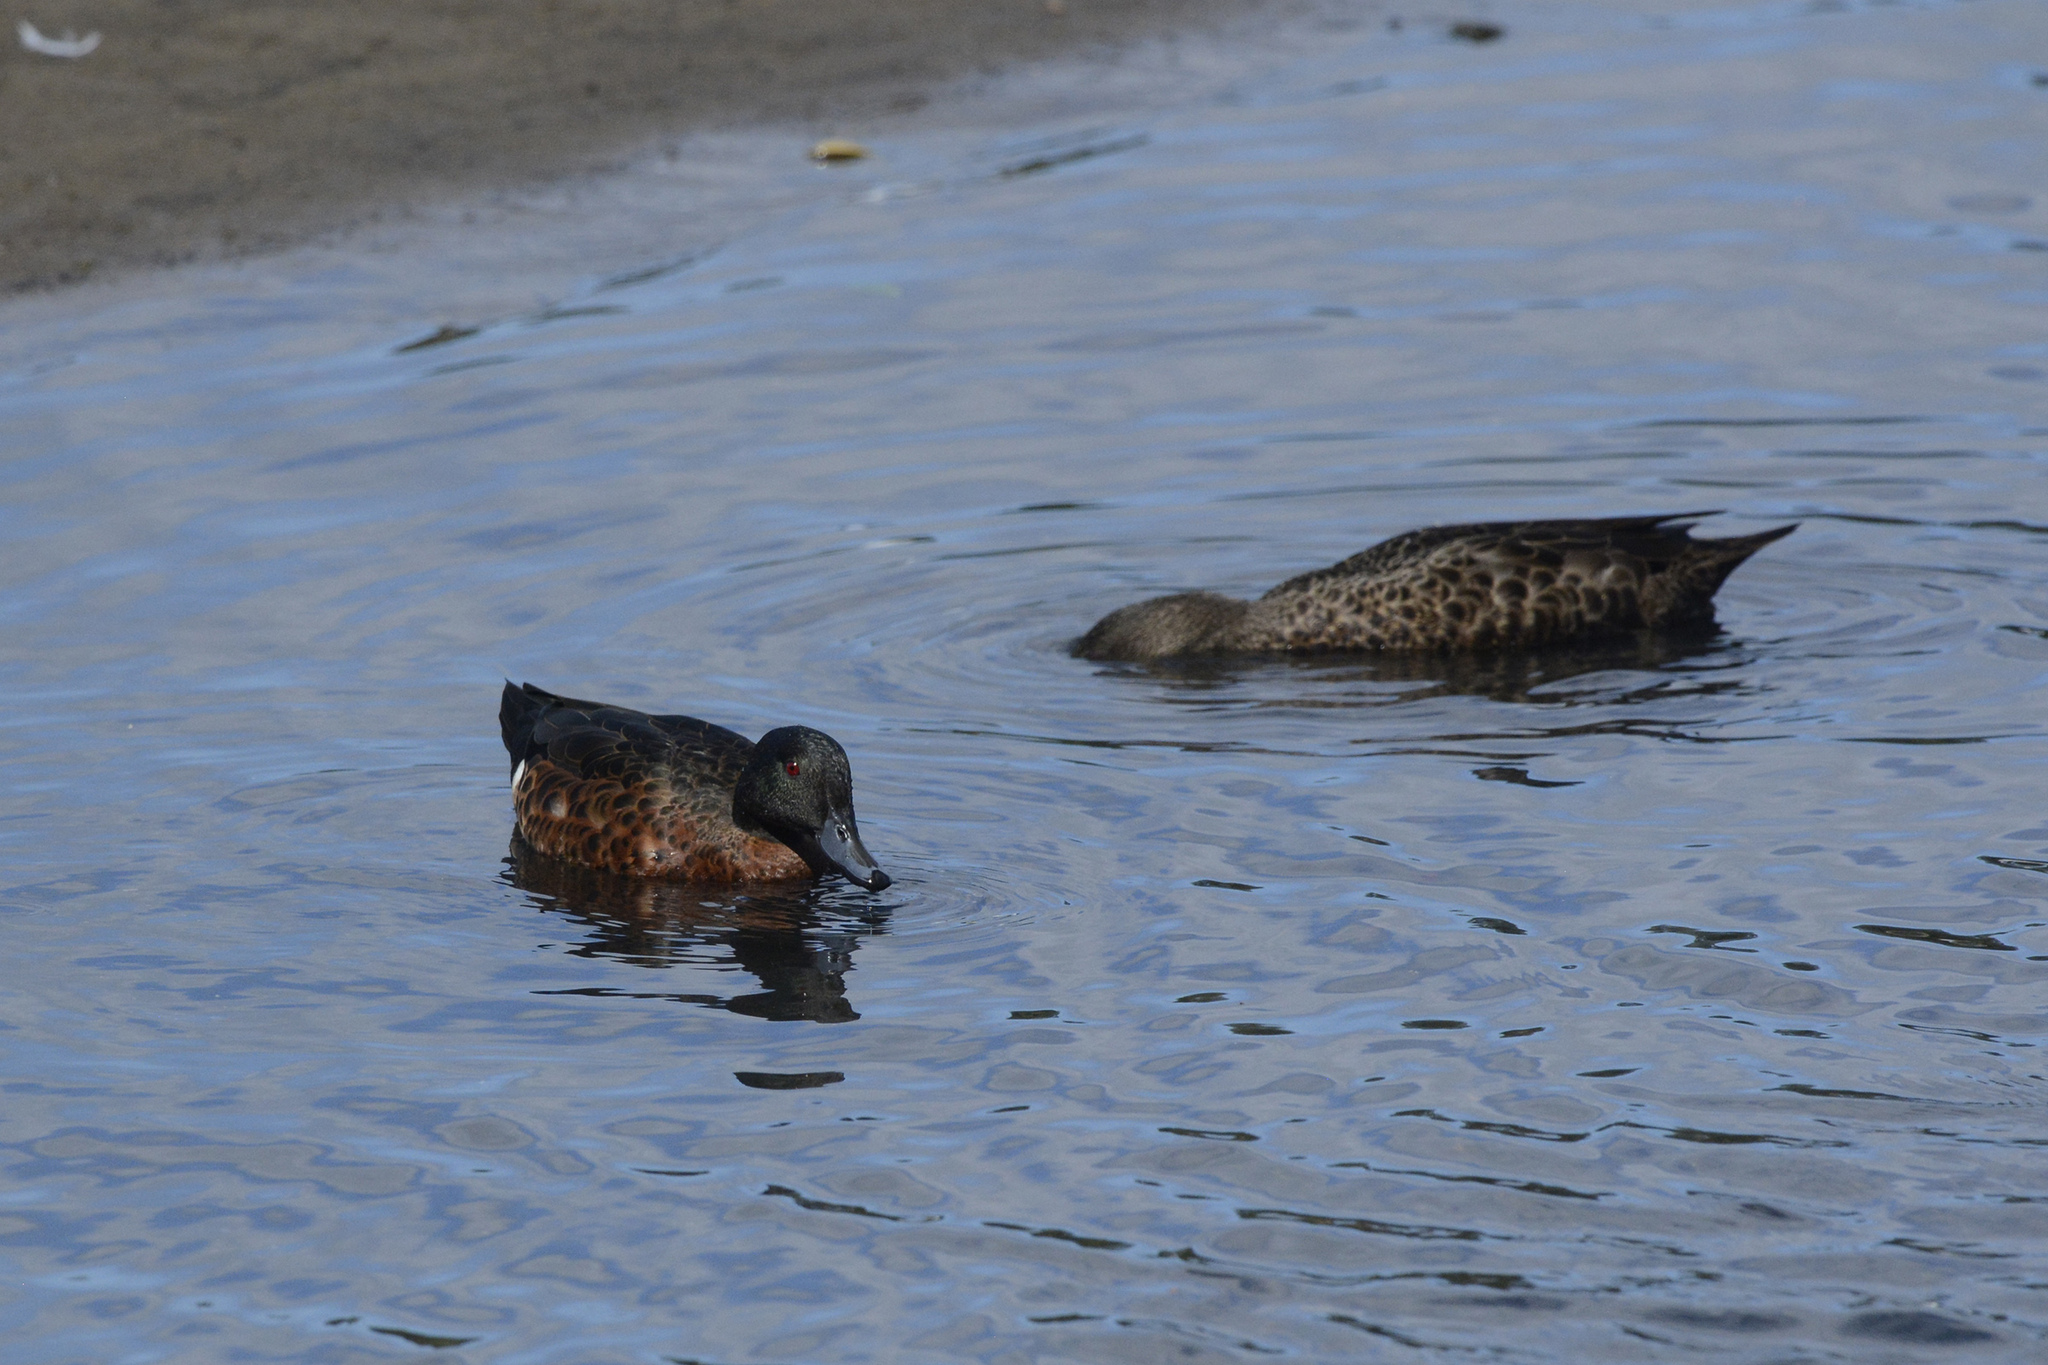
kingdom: Animalia
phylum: Chordata
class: Aves
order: Anseriformes
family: Anatidae
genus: Anas
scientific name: Anas castanea
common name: Chestnut teal
